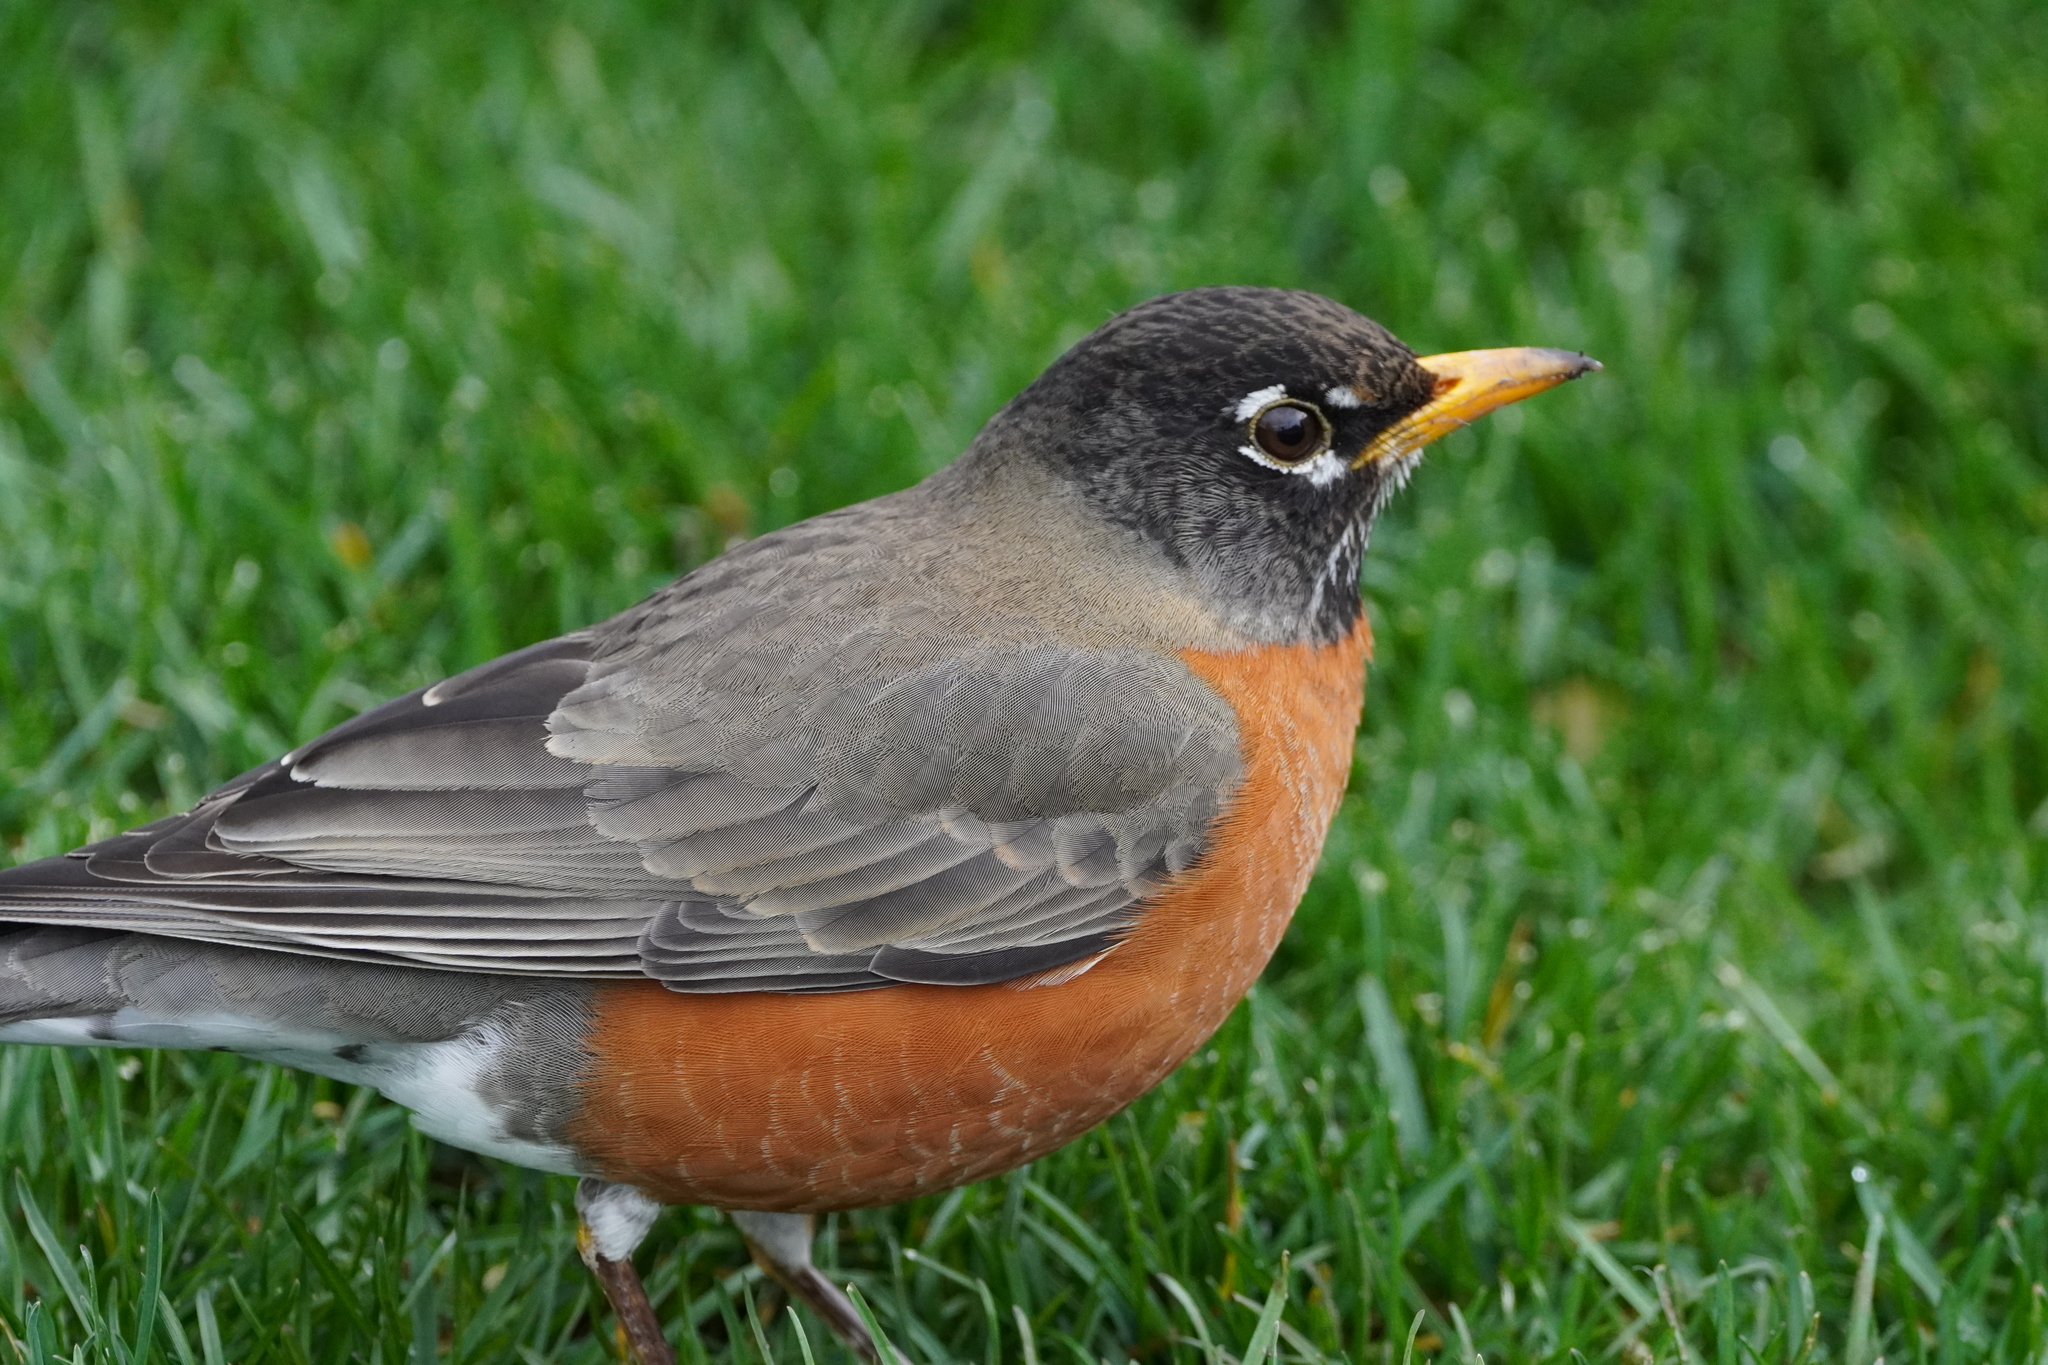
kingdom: Animalia
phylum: Chordata
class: Aves
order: Passeriformes
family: Turdidae
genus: Turdus
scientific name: Turdus migratorius
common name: American robin
